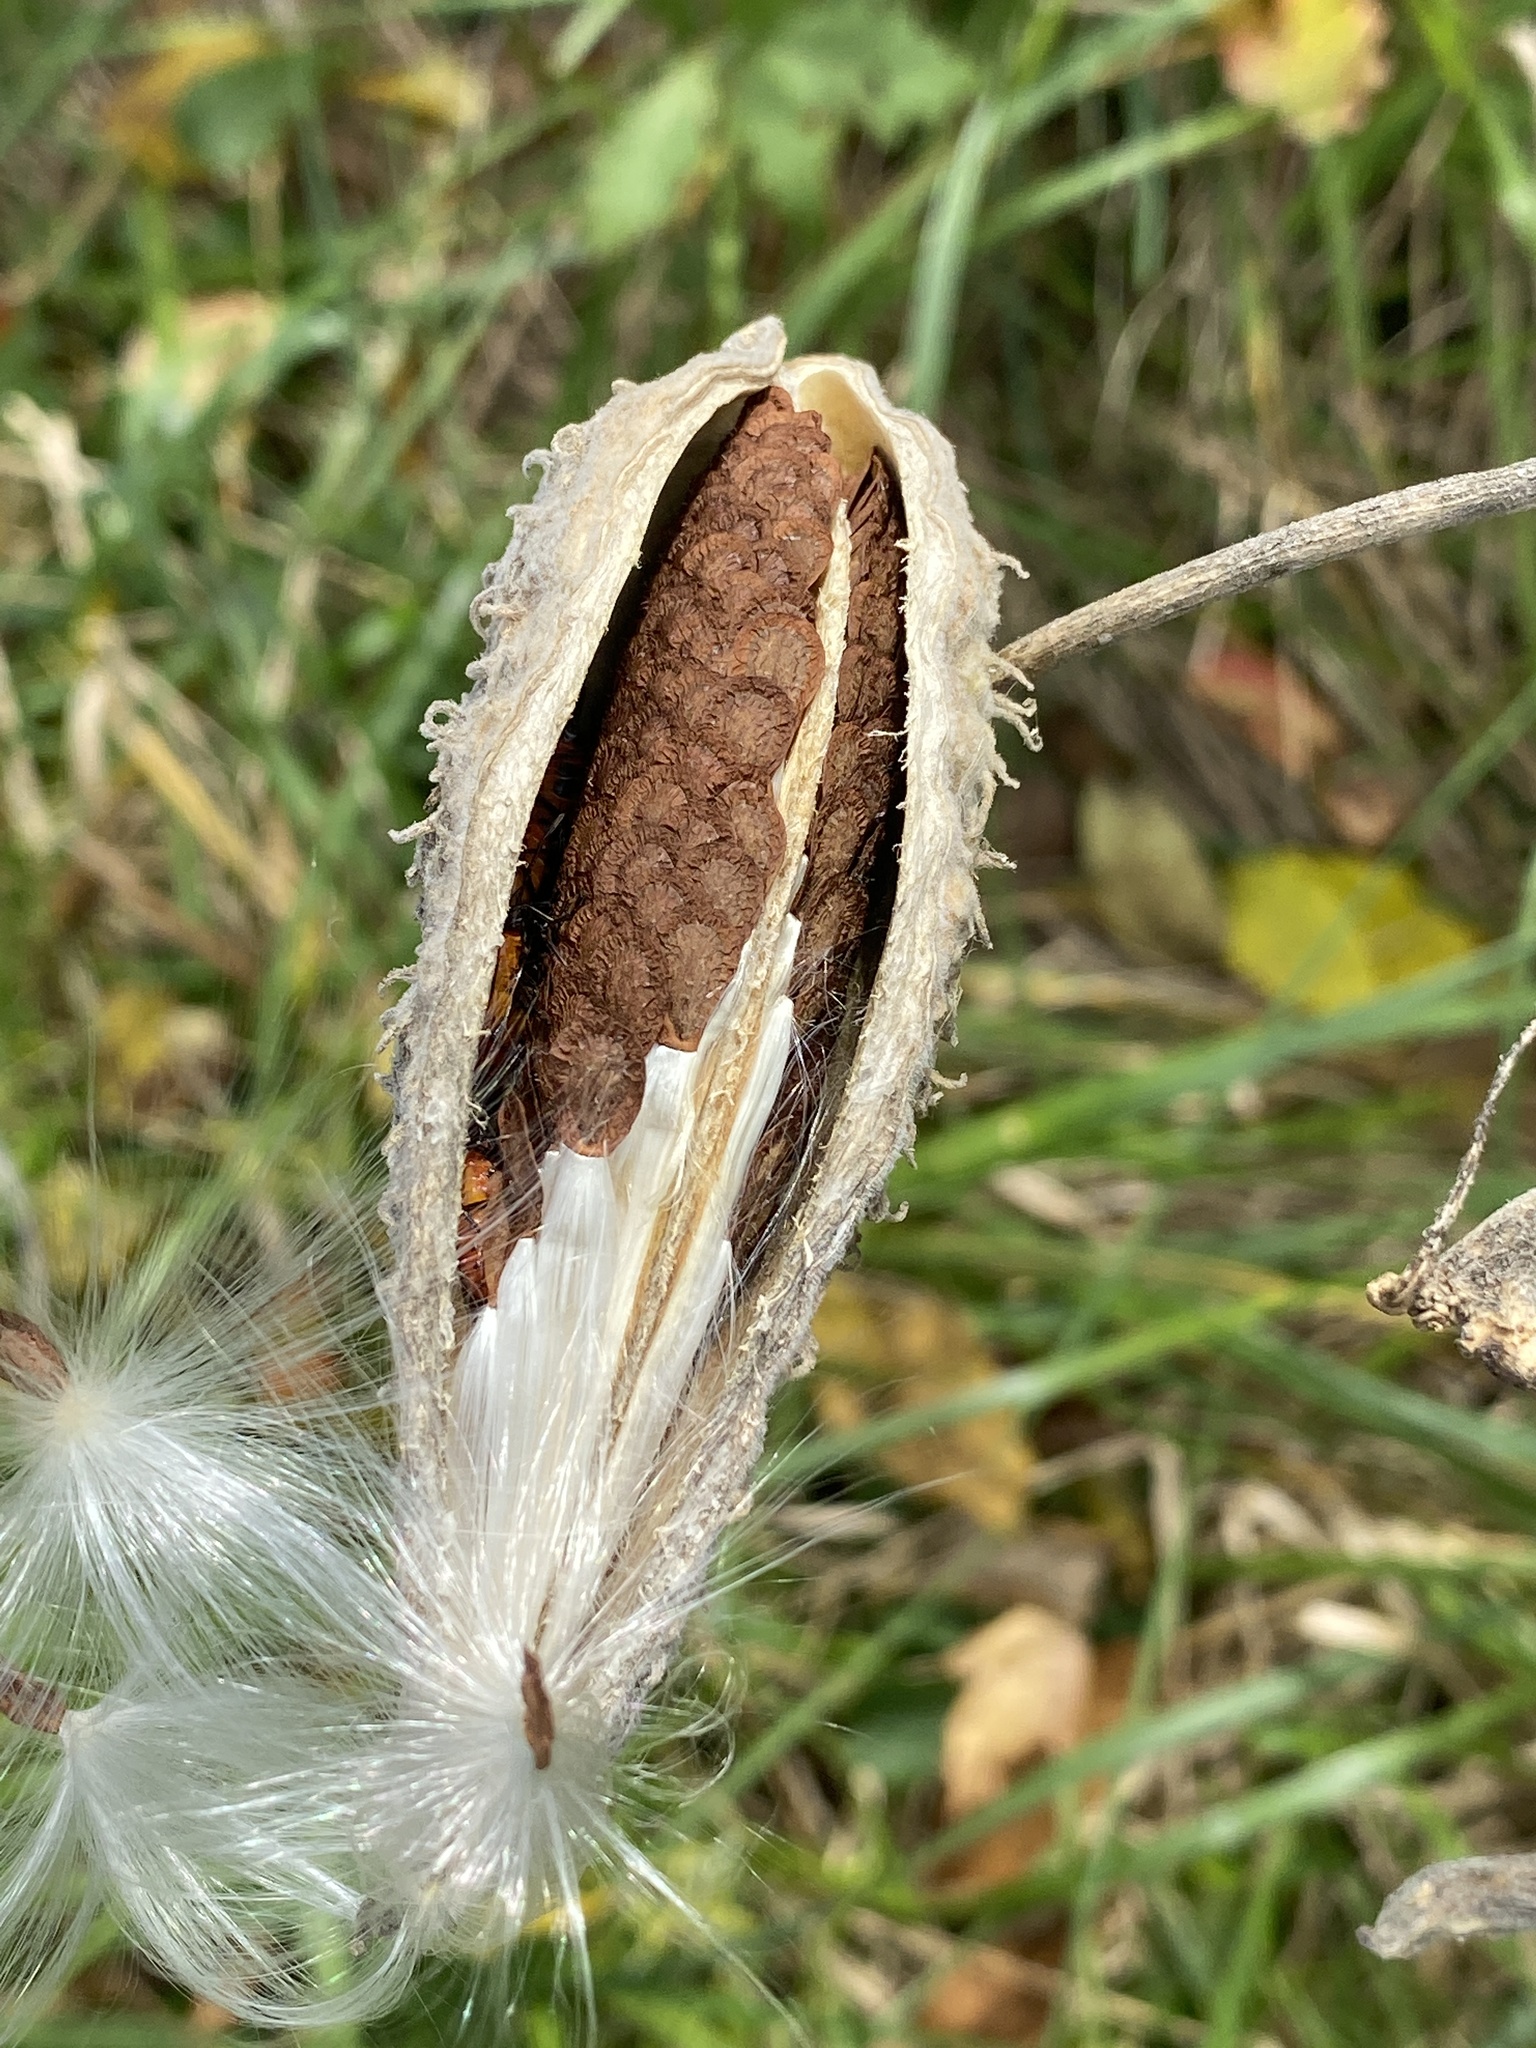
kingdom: Plantae
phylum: Tracheophyta
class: Magnoliopsida
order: Gentianales
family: Apocynaceae
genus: Asclepias
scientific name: Asclepias syriaca
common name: Common milkweed
